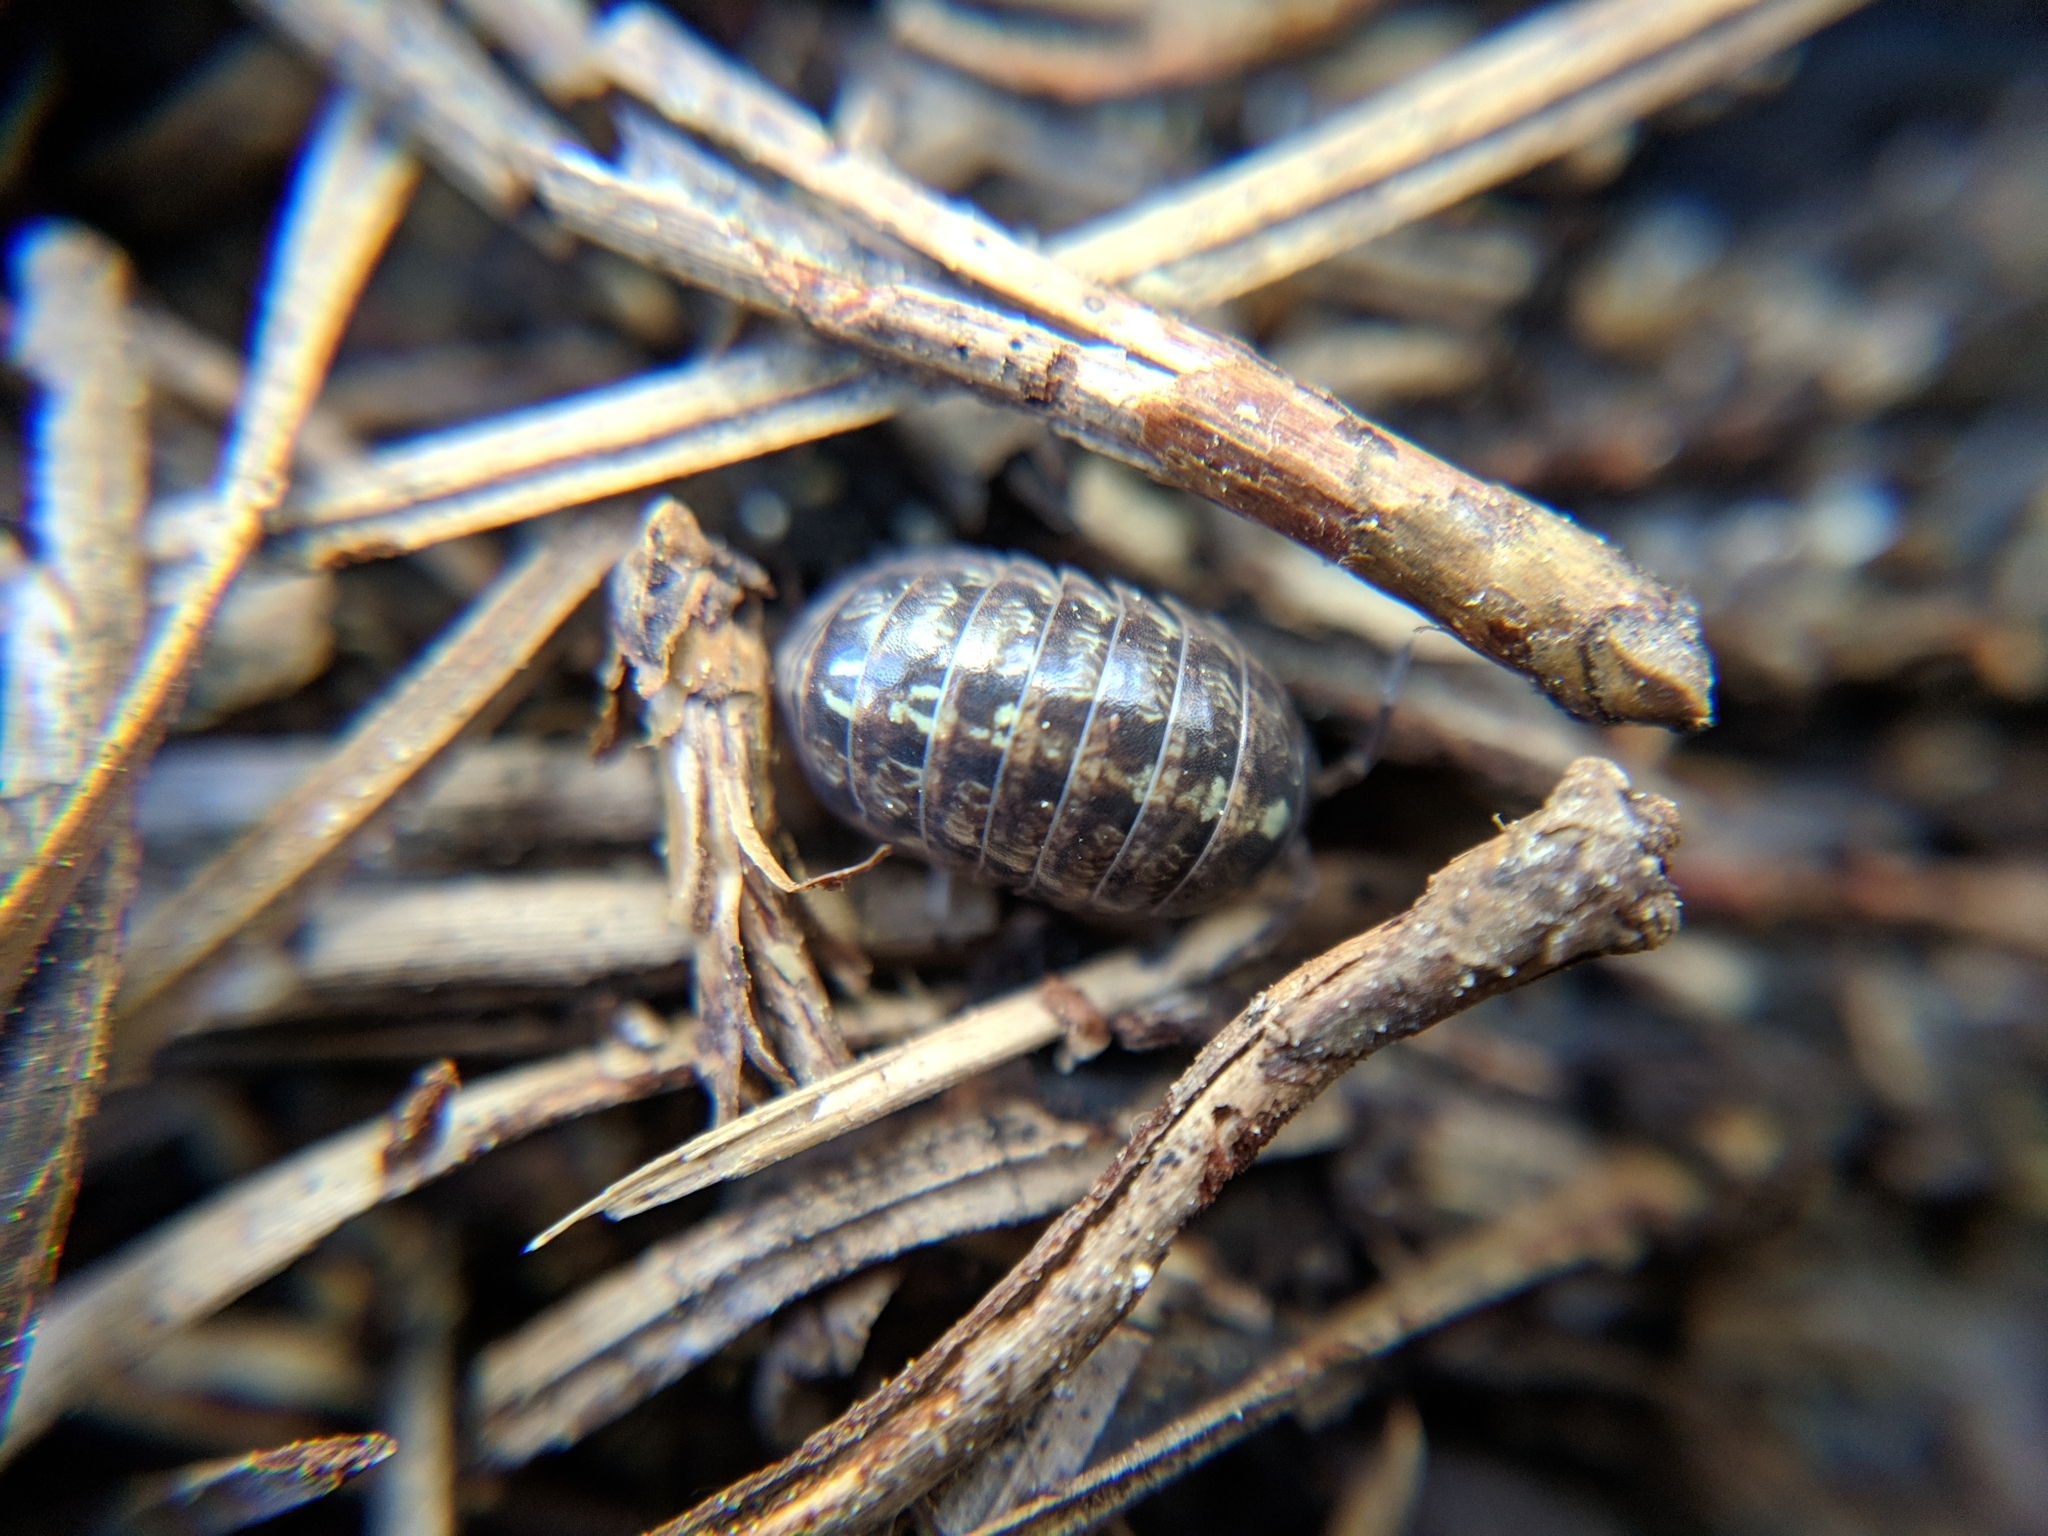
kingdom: Animalia
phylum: Arthropoda
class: Malacostraca
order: Isopoda
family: Armadillidiidae
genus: Armadillidium
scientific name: Armadillidium vulgare
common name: Common pill woodlouse
